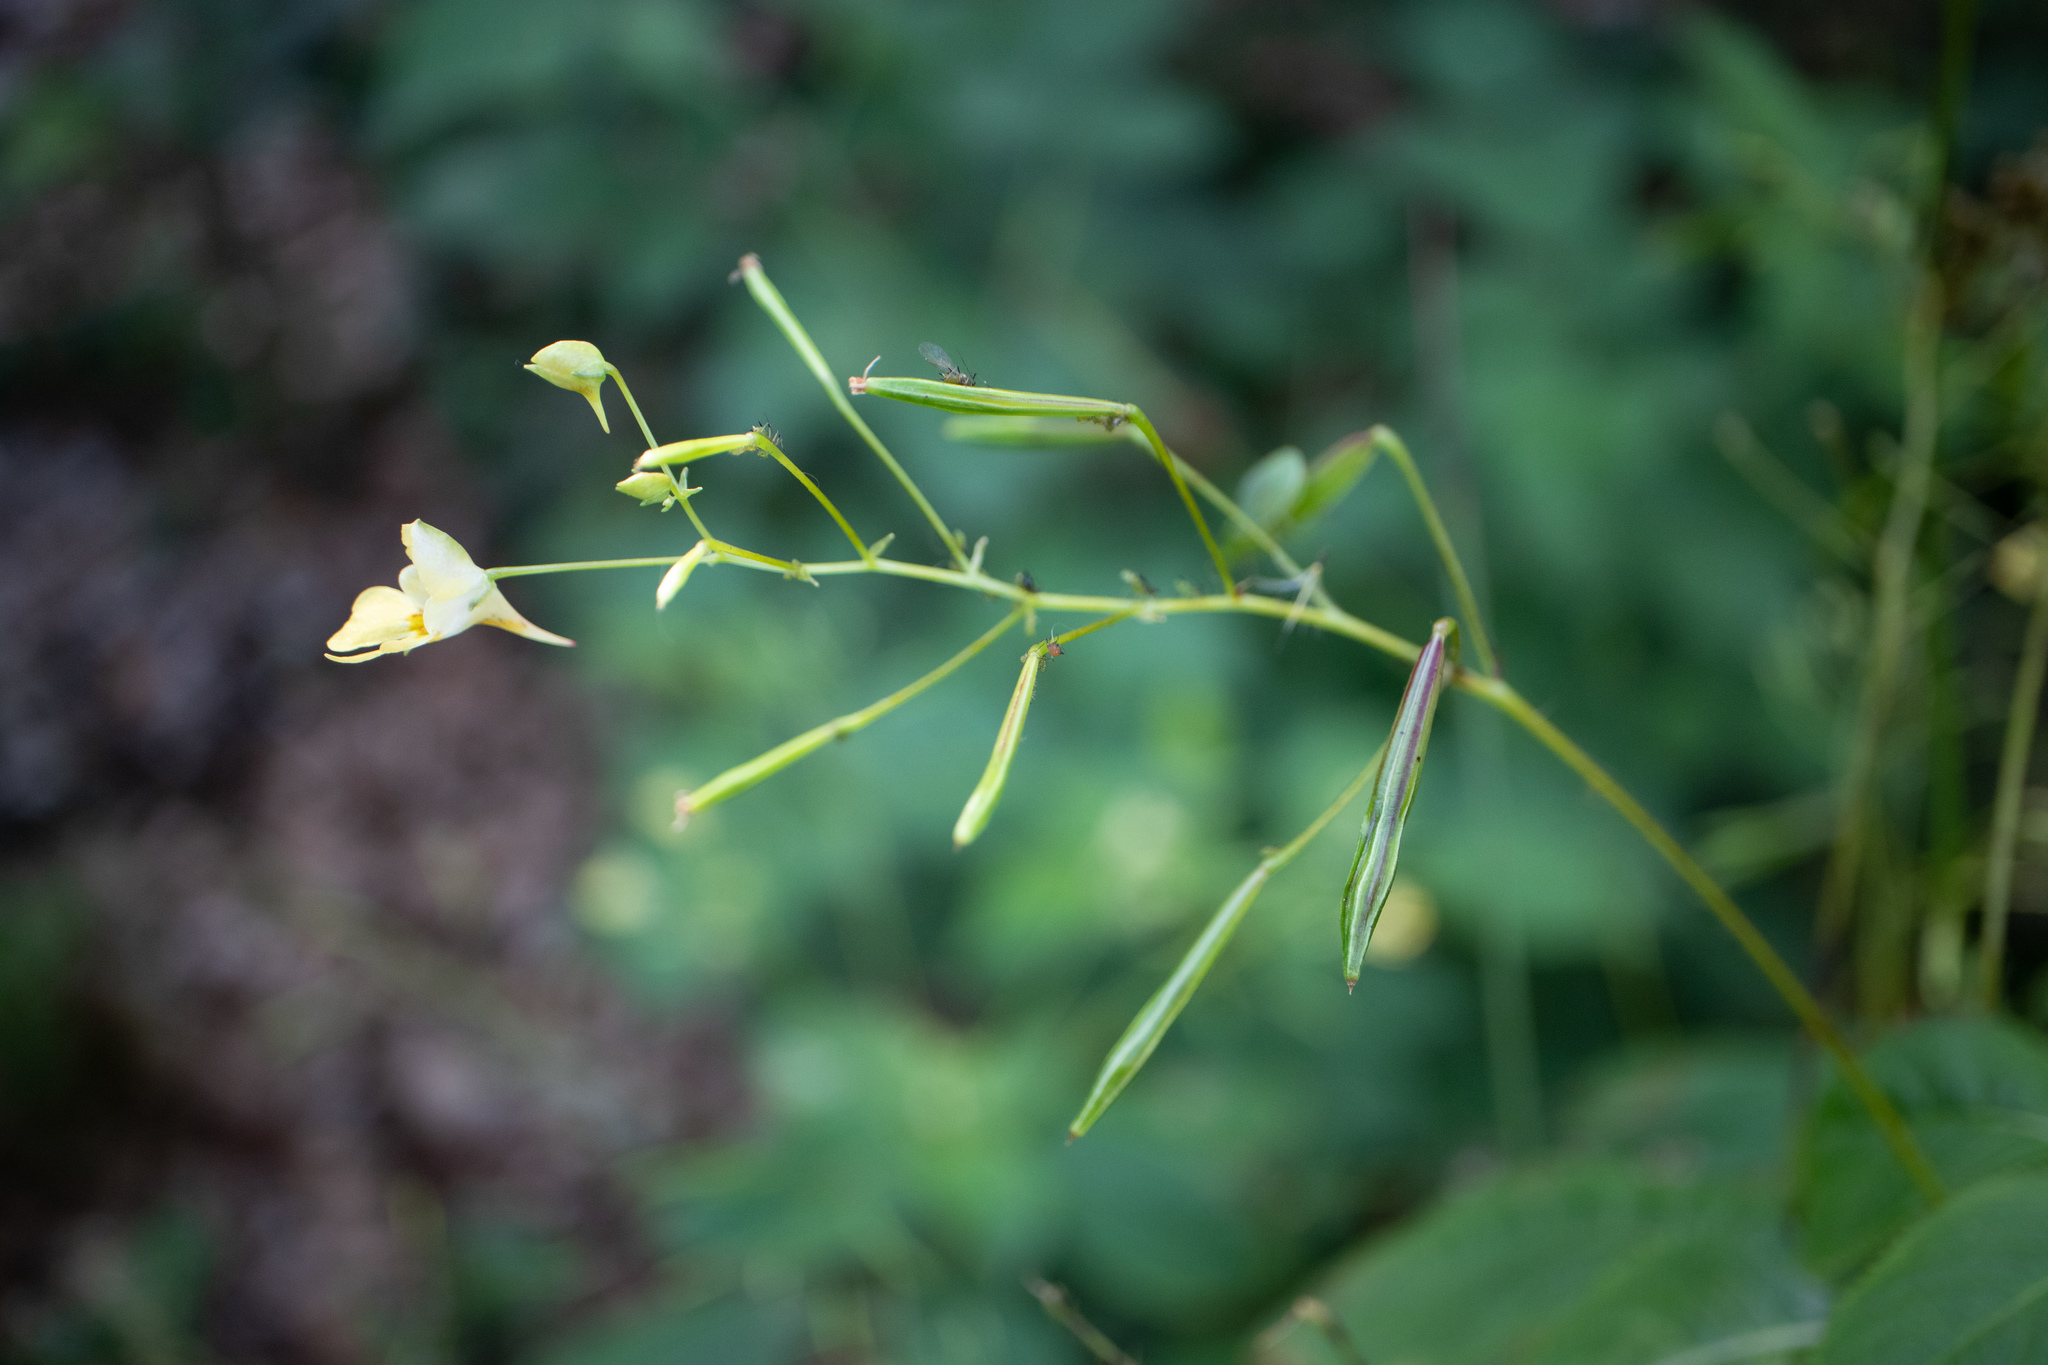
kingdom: Plantae
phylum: Tracheophyta
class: Magnoliopsida
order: Ericales
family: Balsaminaceae
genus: Impatiens
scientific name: Impatiens parviflora
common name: Small balsam
